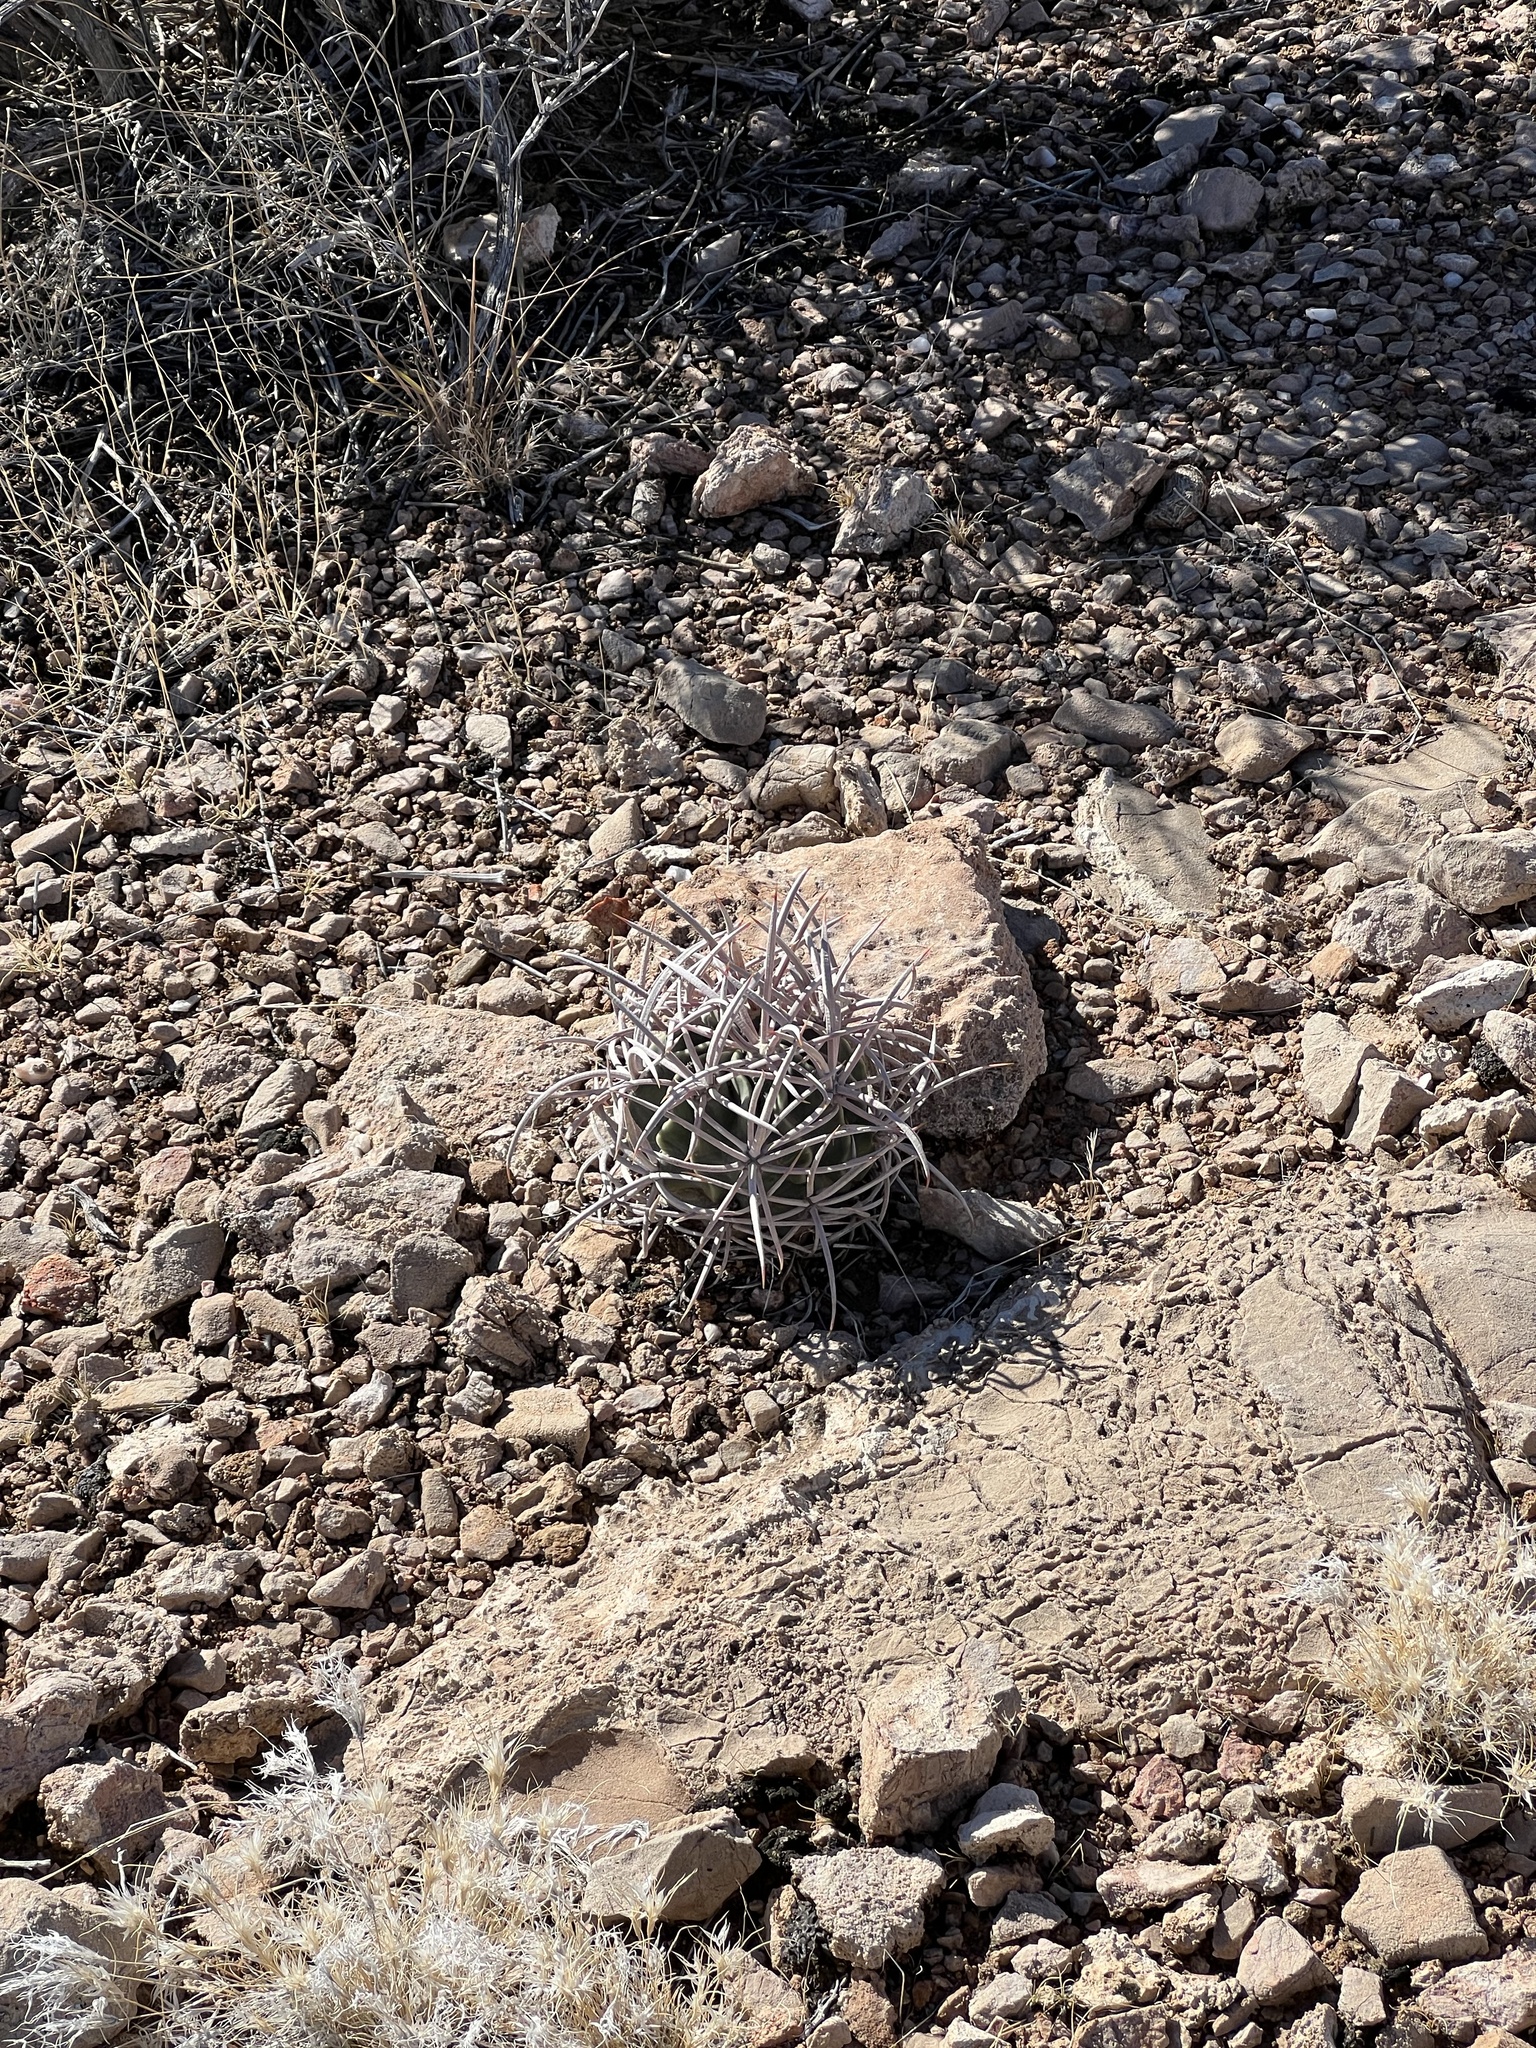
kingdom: Plantae
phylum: Tracheophyta
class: Magnoliopsida
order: Caryophyllales
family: Cactaceae
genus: Echinocactus
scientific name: Echinocactus polycephalus
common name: Cottontop cactus
